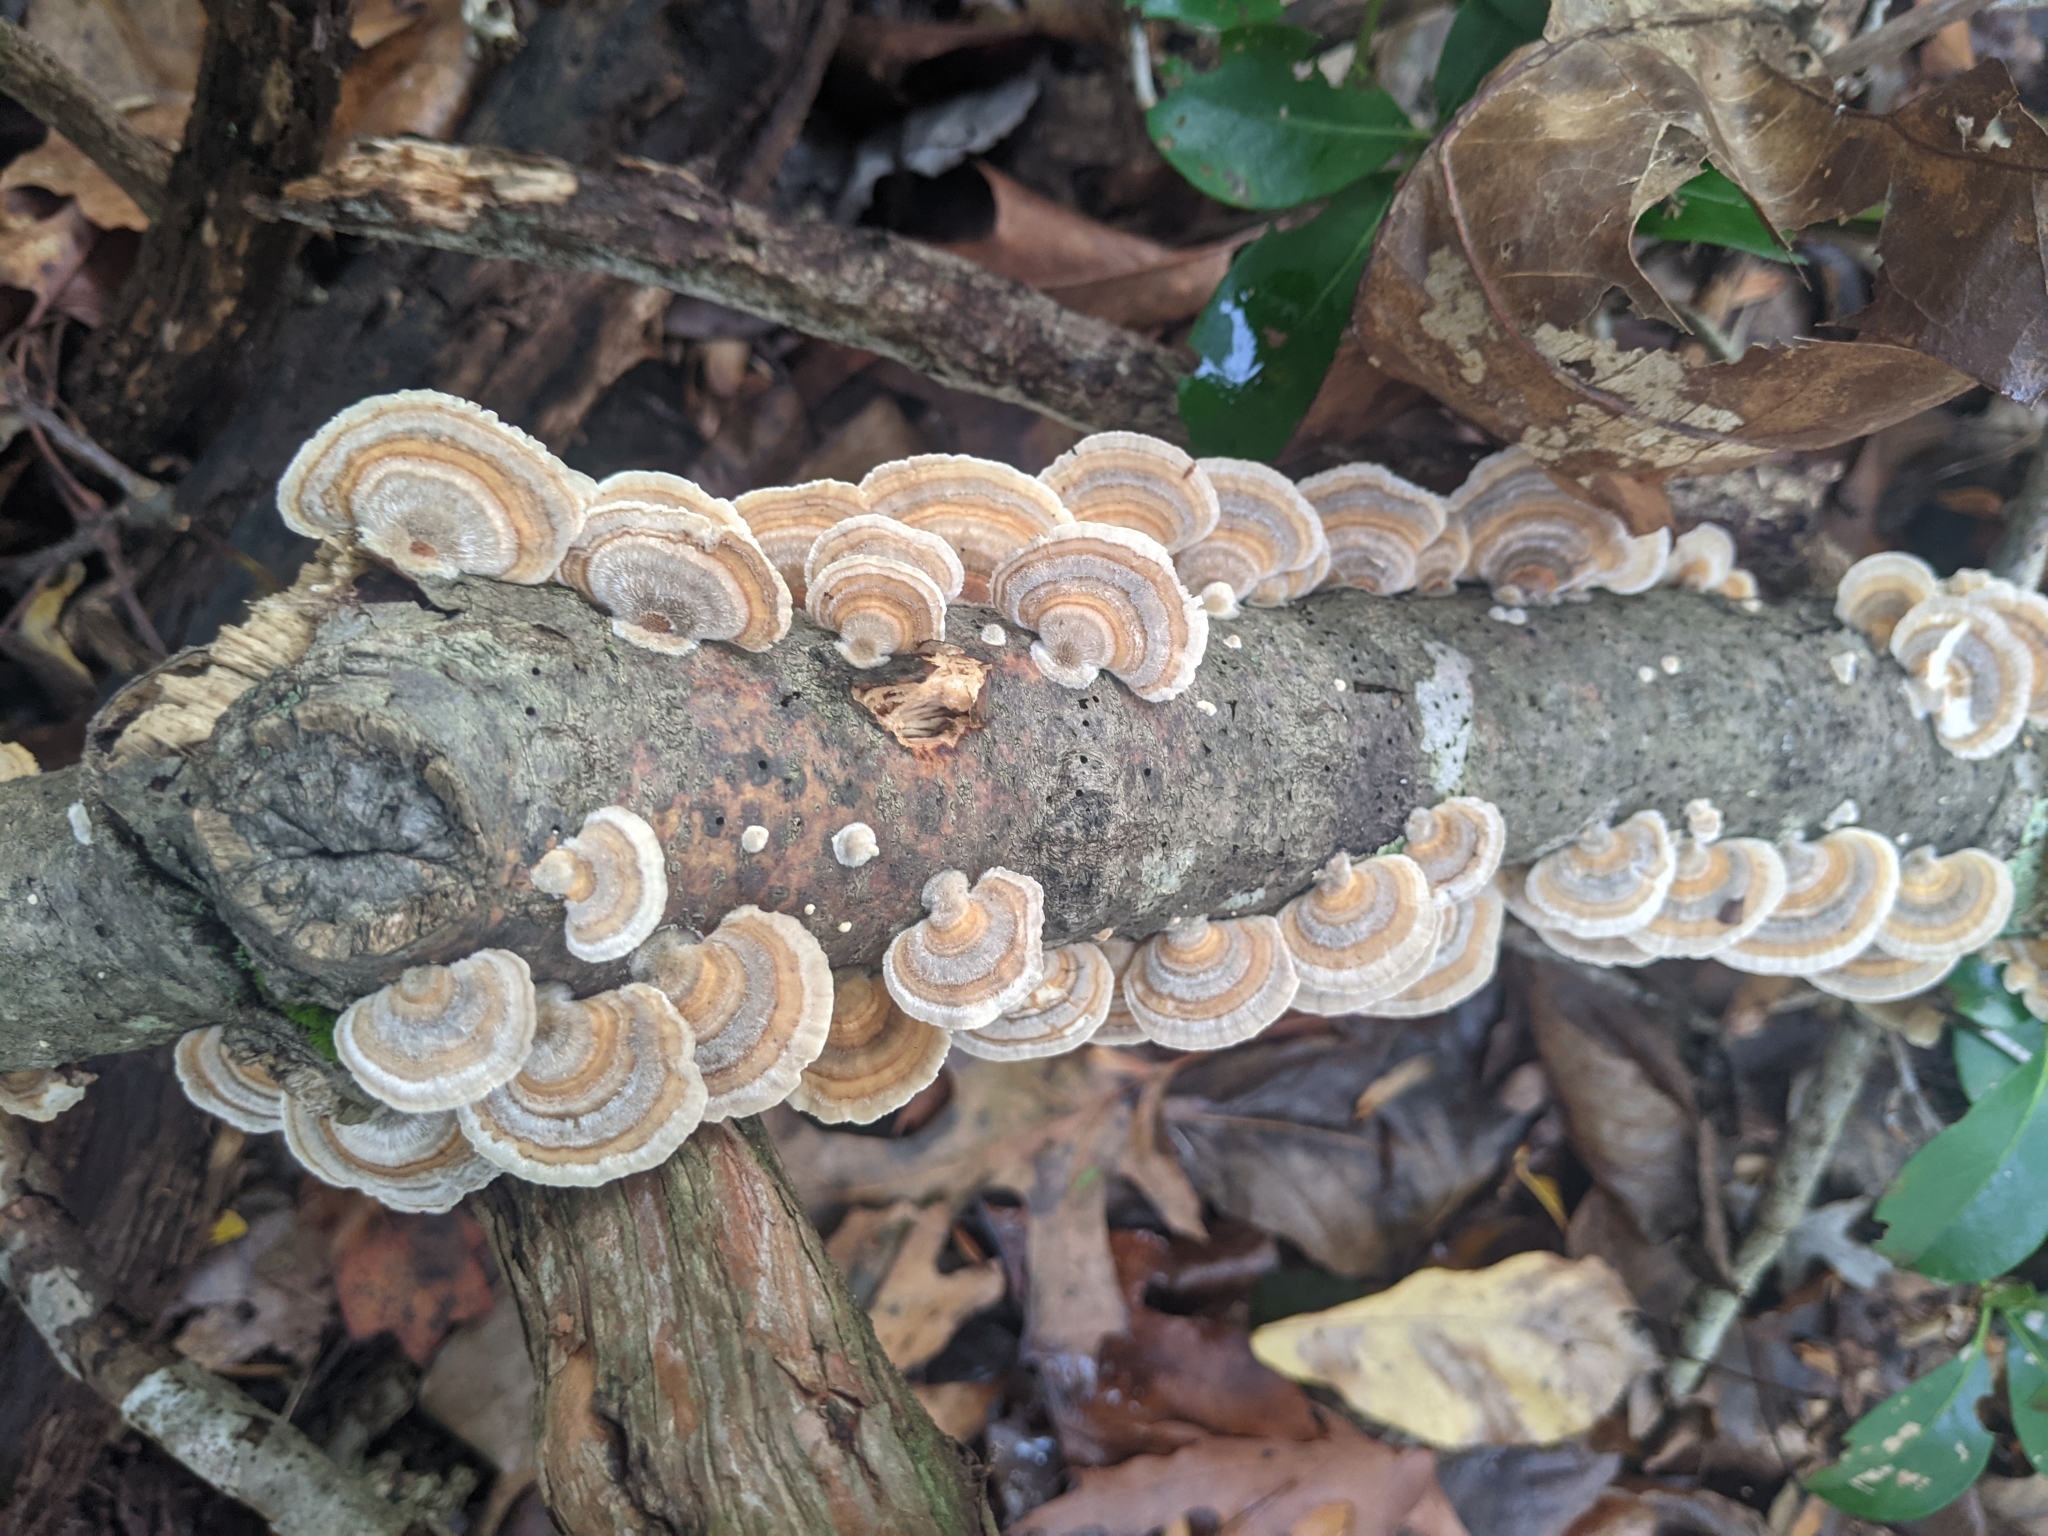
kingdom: Fungi
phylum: Basidiomycota
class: Agaricomycetes
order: Polyporales
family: Polyporaceae
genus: Trametes
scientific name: Trametes versicolor
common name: Turkeytail
